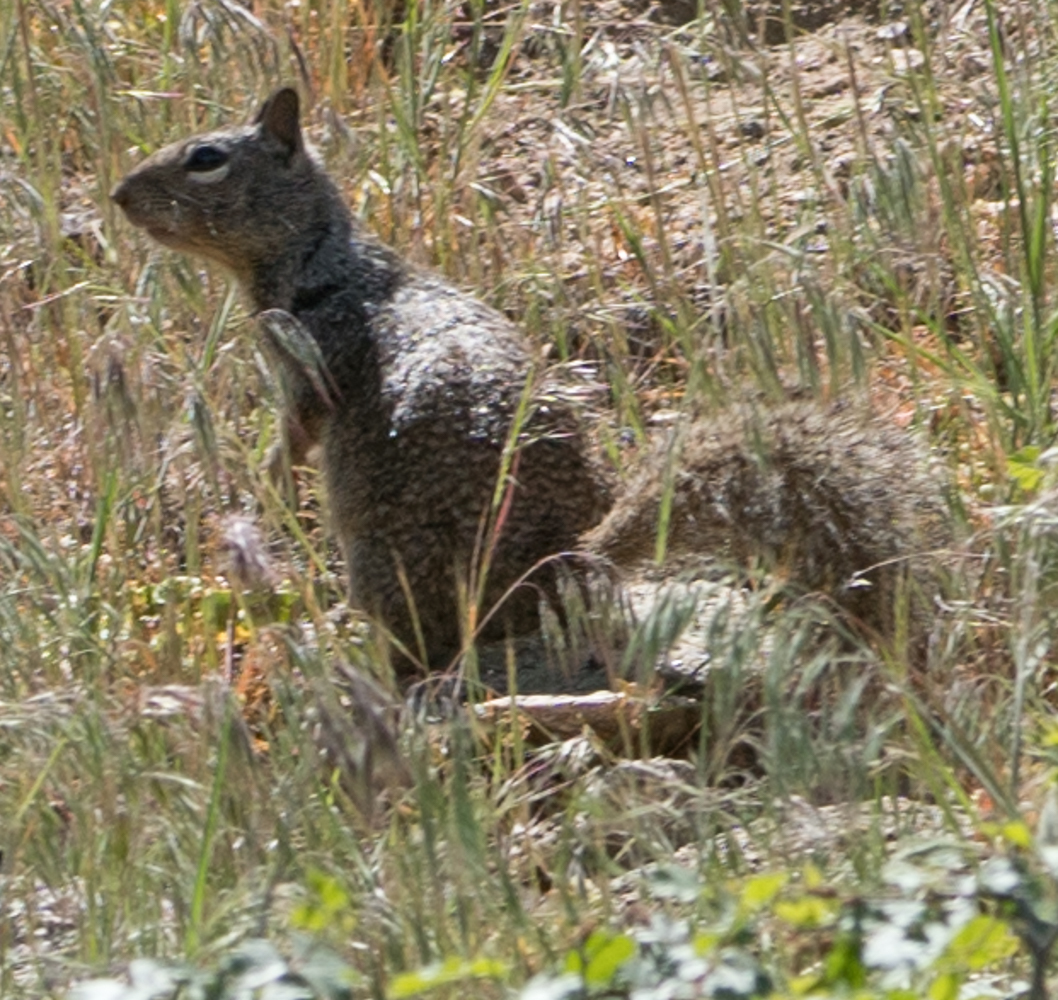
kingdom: Animalia
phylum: Chordata
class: Mammalia
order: Rodentia
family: Sciuridae
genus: Otospermophilus
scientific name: Otospermophilus beecheyi
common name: California ground squirrel
